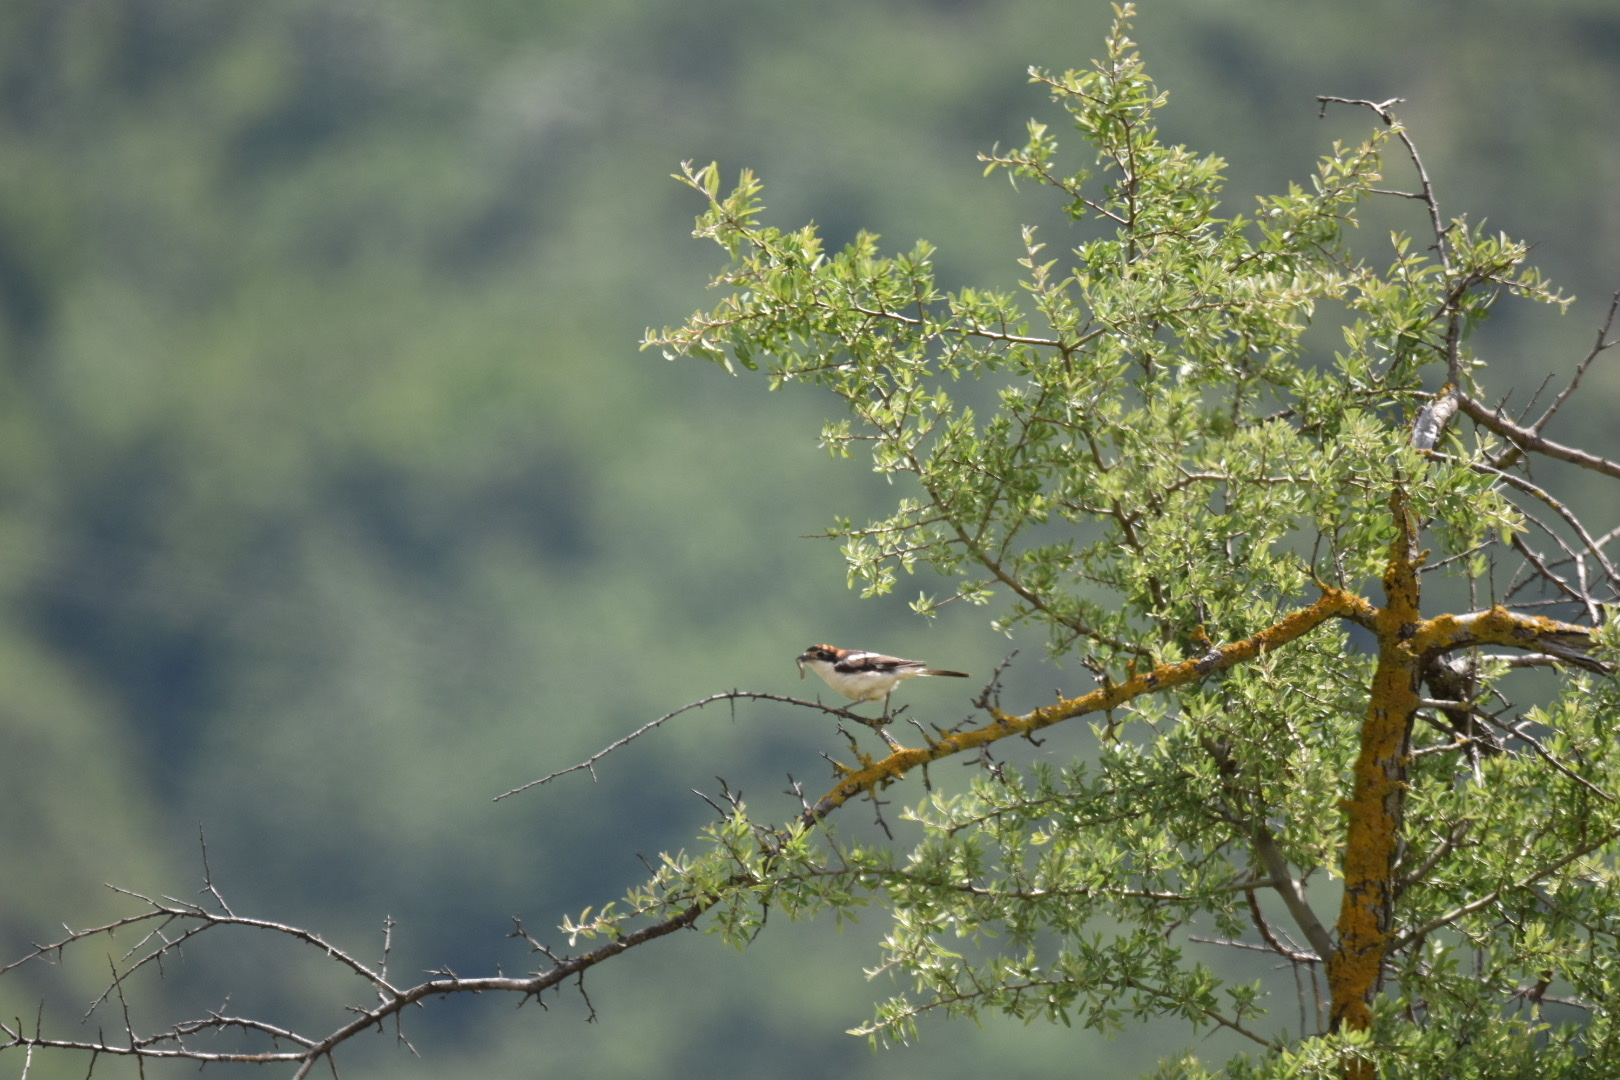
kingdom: Animalia
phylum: Chordata
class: Aves
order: Passeriformes
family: Laniidae
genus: Lanius
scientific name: Lanius senator
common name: Woodchat shrike
